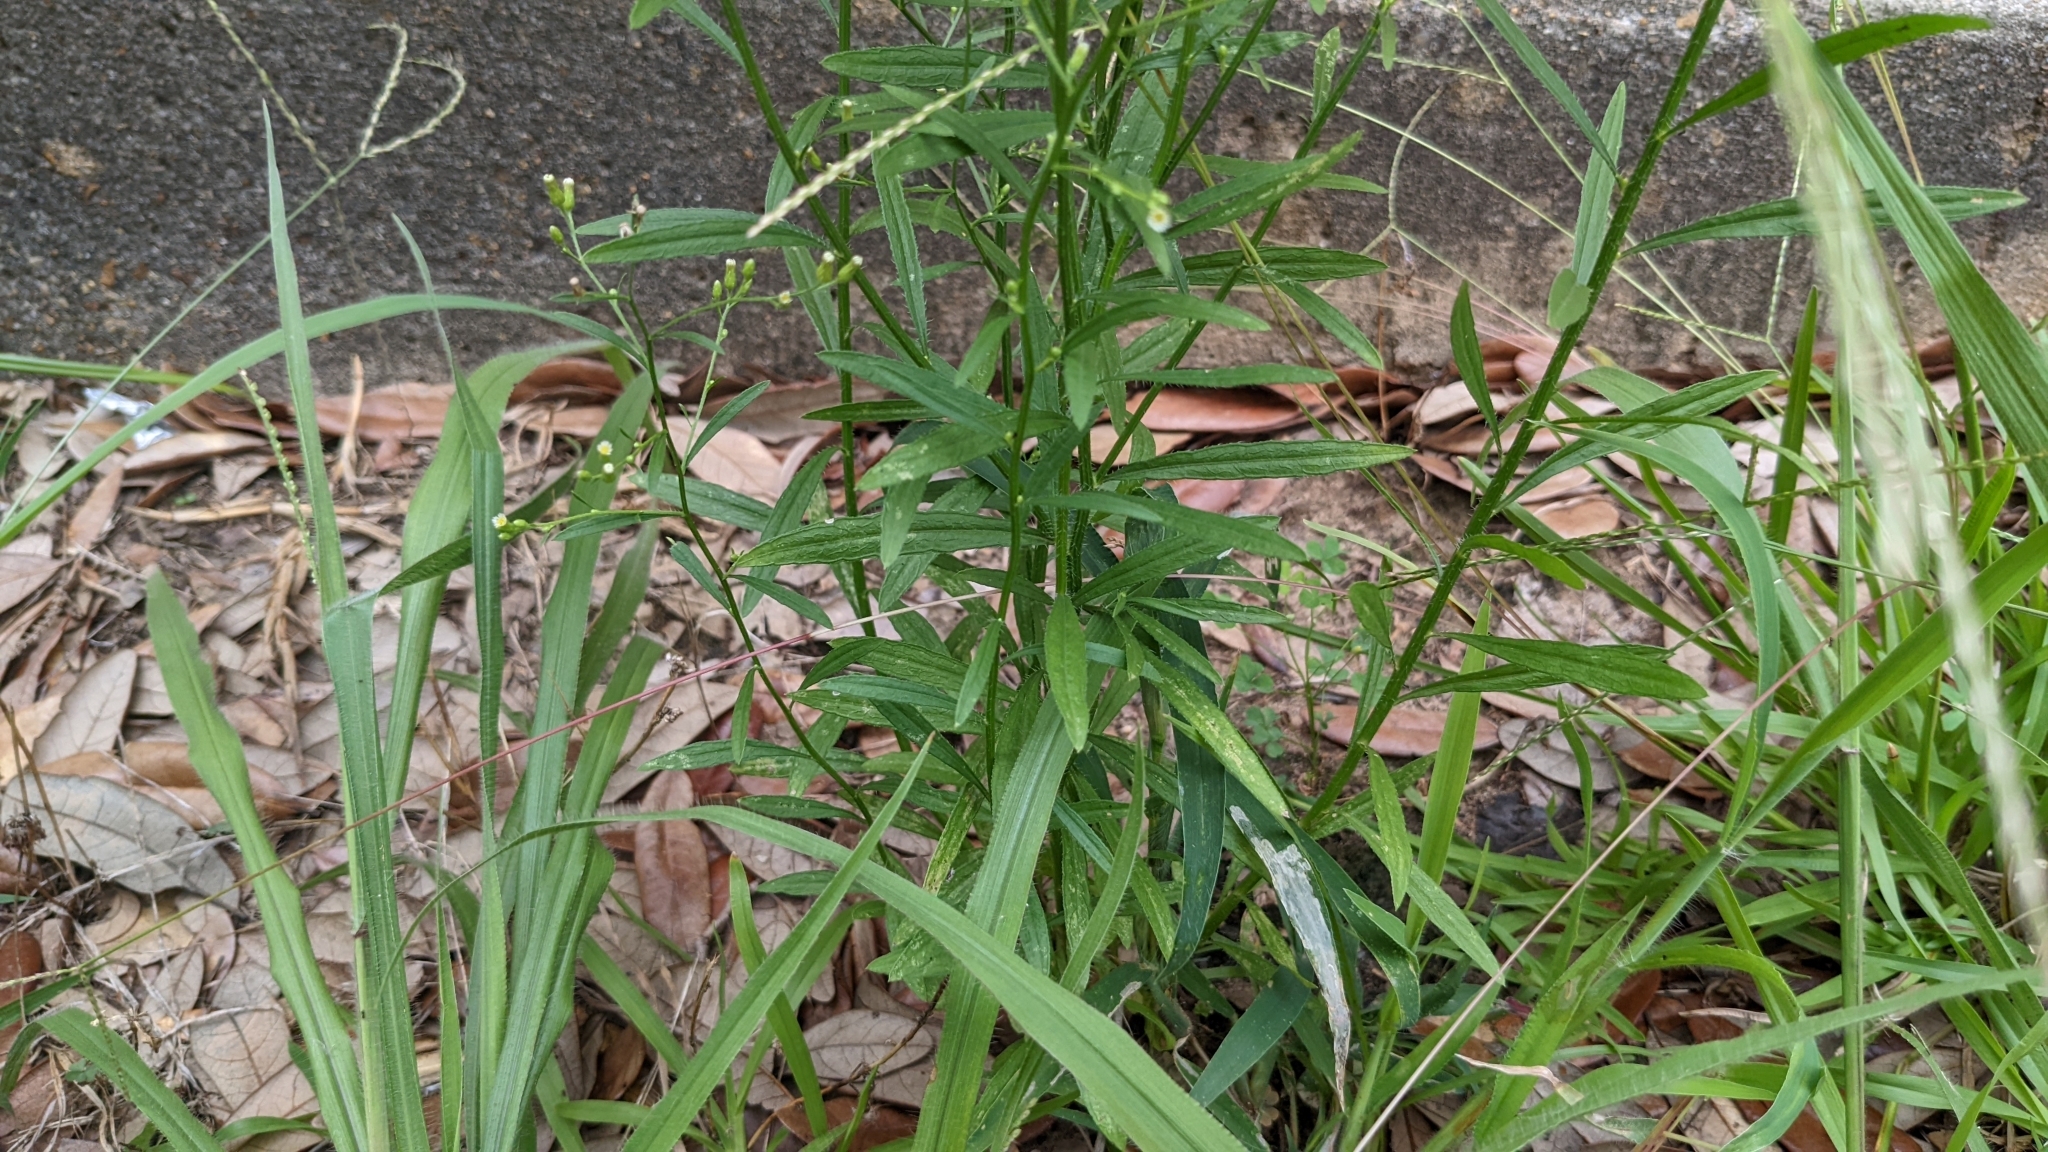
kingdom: Plantae
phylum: Tracheophyta
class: Magnoliopsida
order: Asterales
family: Asteraceae
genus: Erigeron
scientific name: Erigeron canadensis
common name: Canadian fleabane
